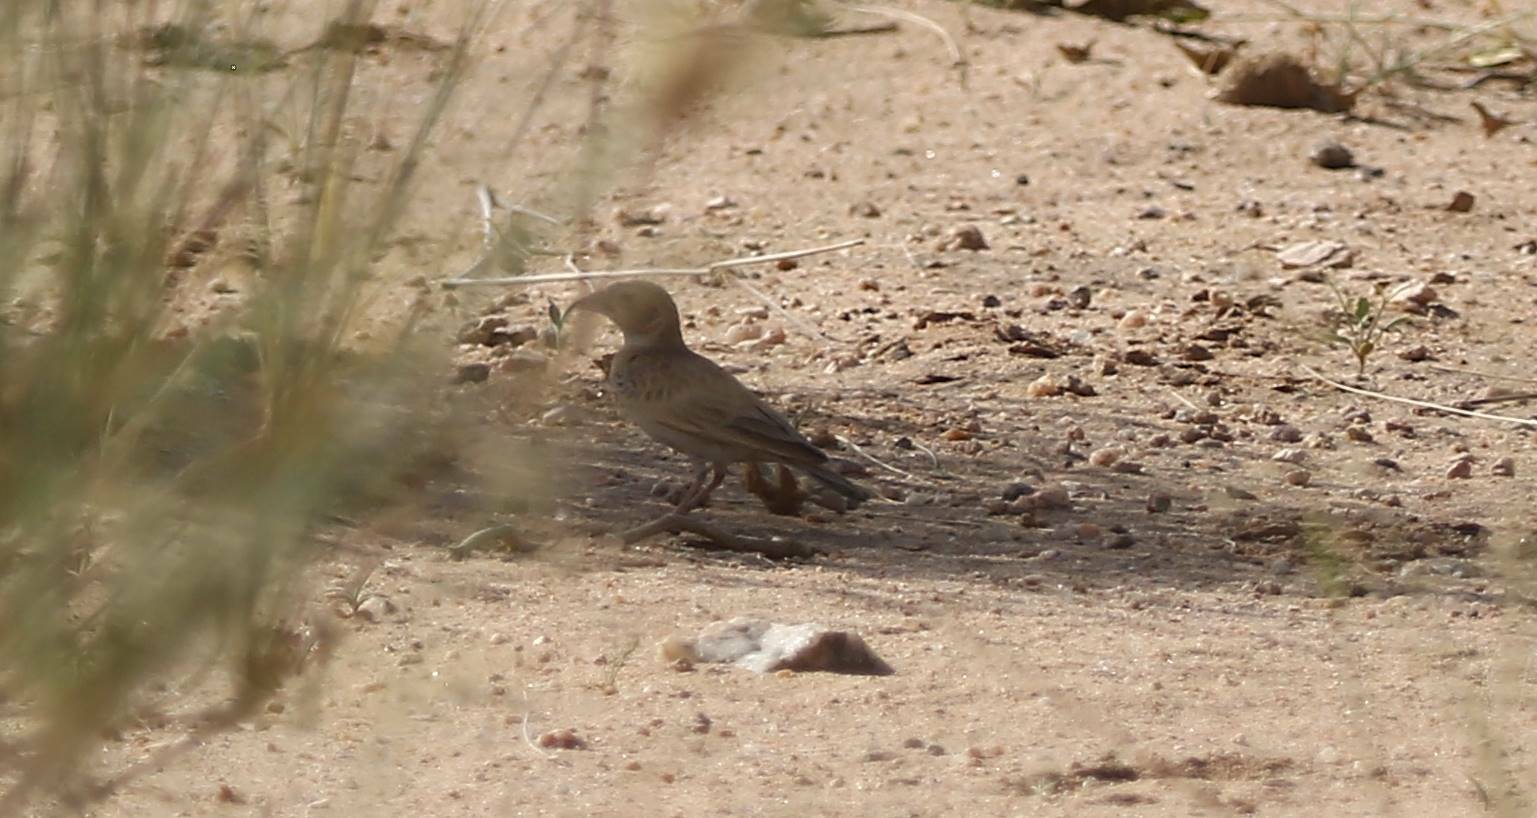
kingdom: Animalia
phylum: Chordata
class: Aves
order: Passeriformes
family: Alaudidae
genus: Eremopterix
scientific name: Eremopterix nigriceps
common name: Black-crowned sparrow-lark
